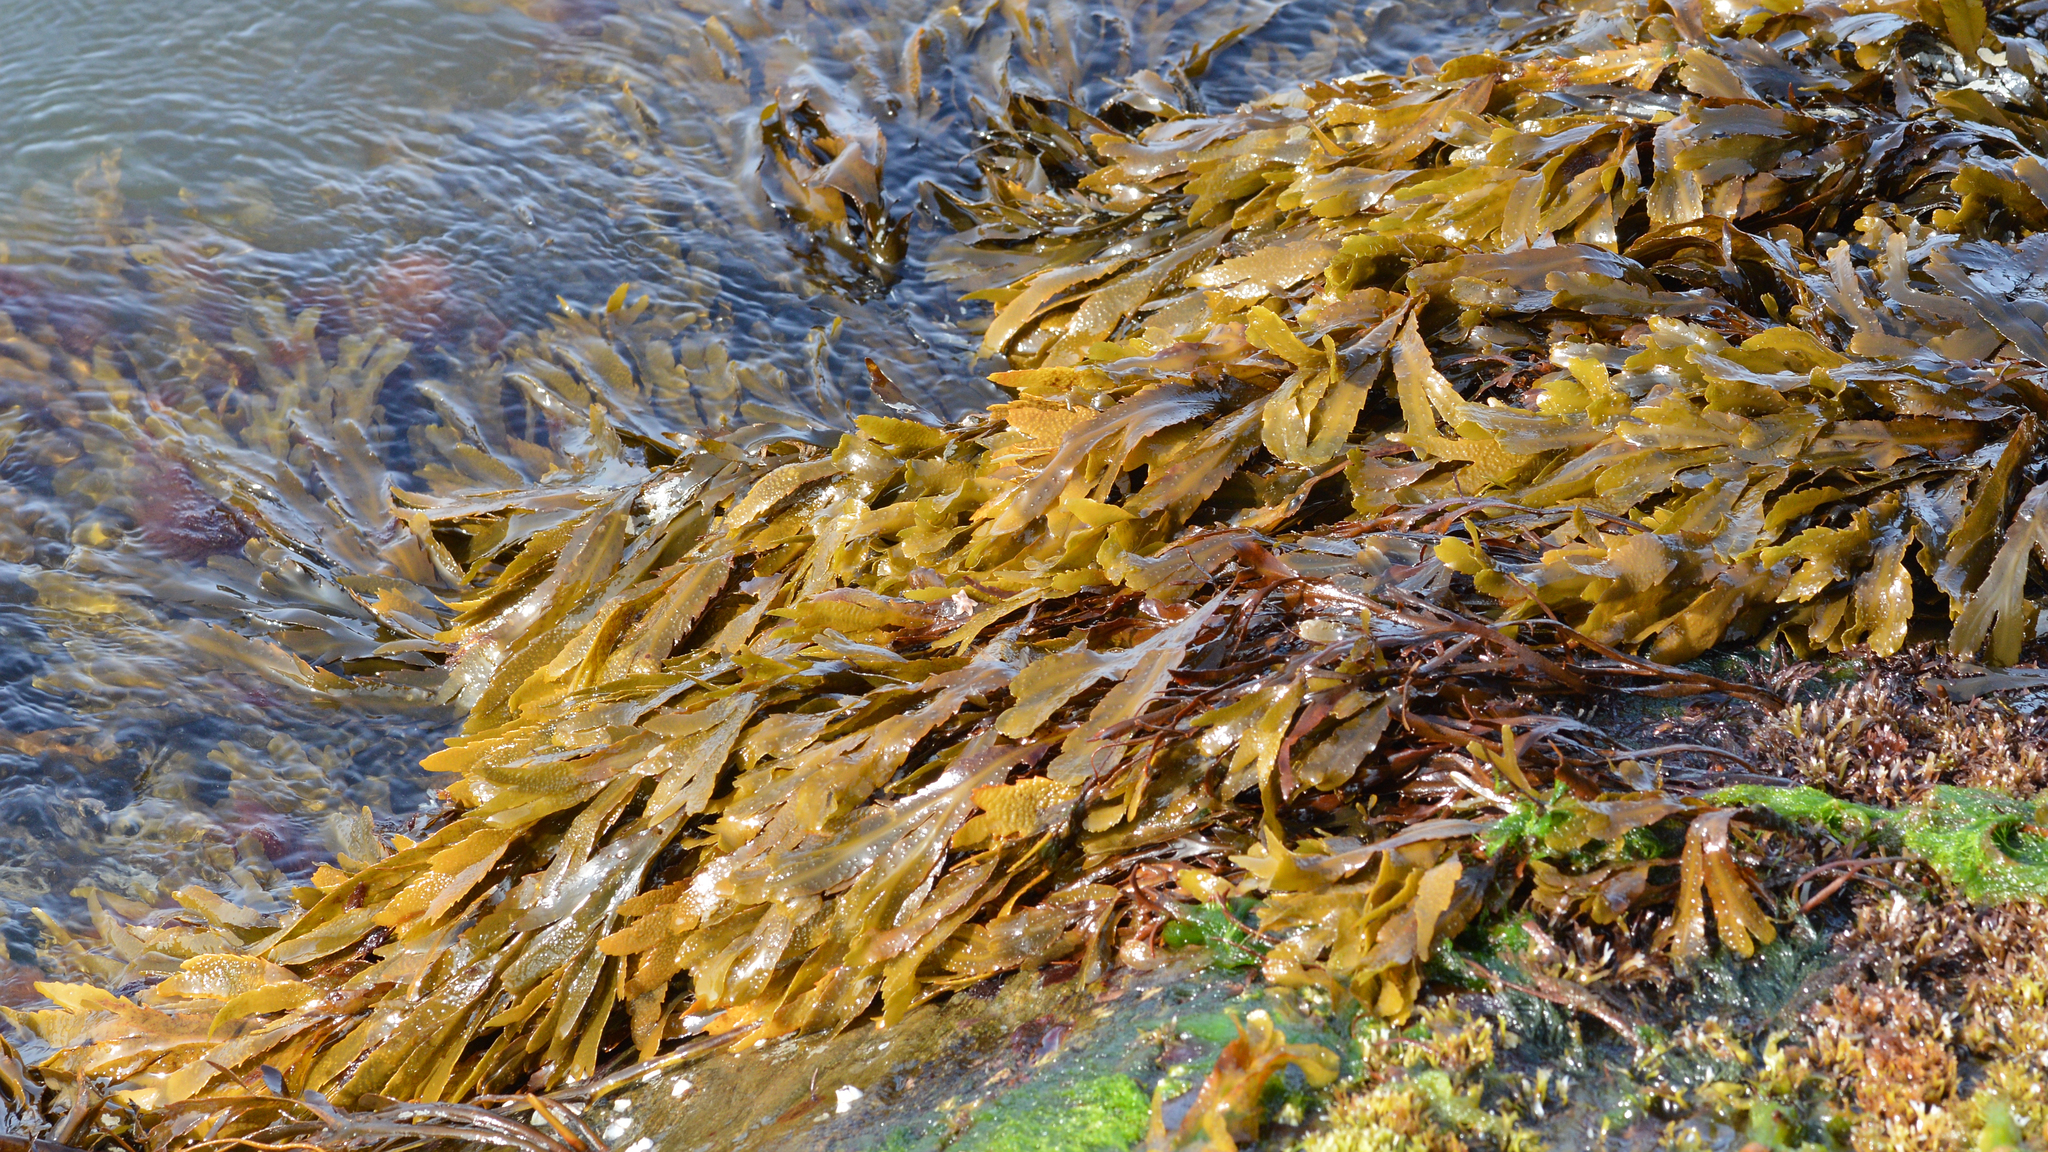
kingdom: Chromista
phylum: Ochrophyta
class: Phaeophyceae
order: Fucales
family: Fucaceae
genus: Fucus
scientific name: Fucus serratus
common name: Toothed wrack
